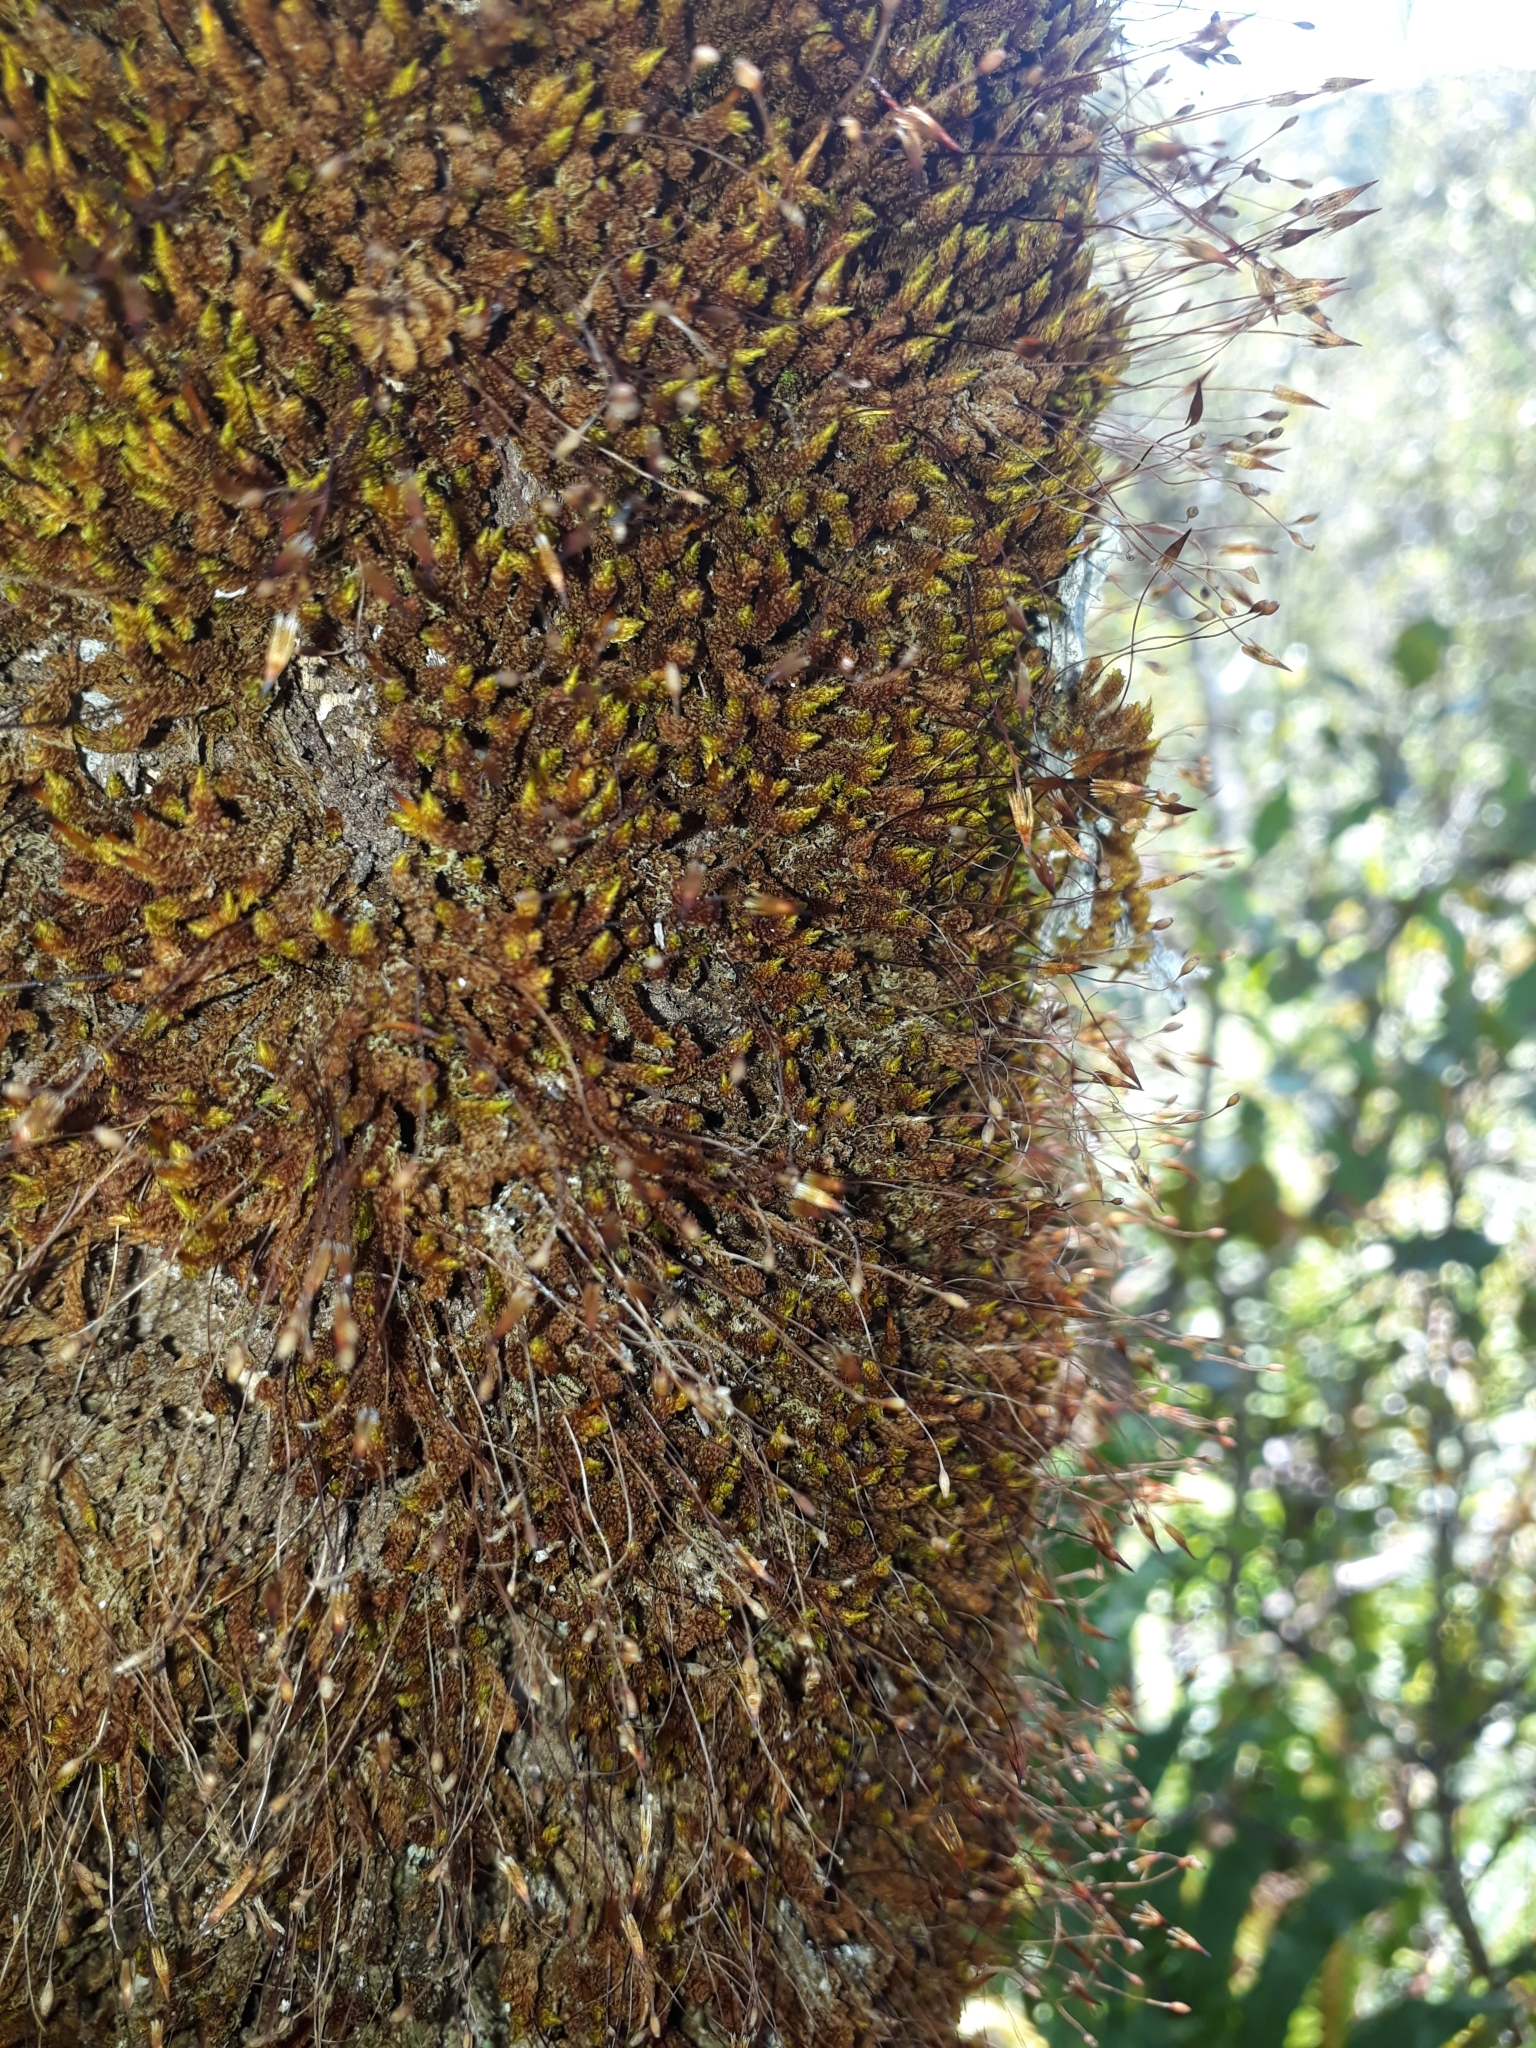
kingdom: Plantae
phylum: Bryophyta
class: Bryopsida
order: Orthotrichales
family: Orthotrichaceae
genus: Macromitrium
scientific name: Macromitrium longipes
